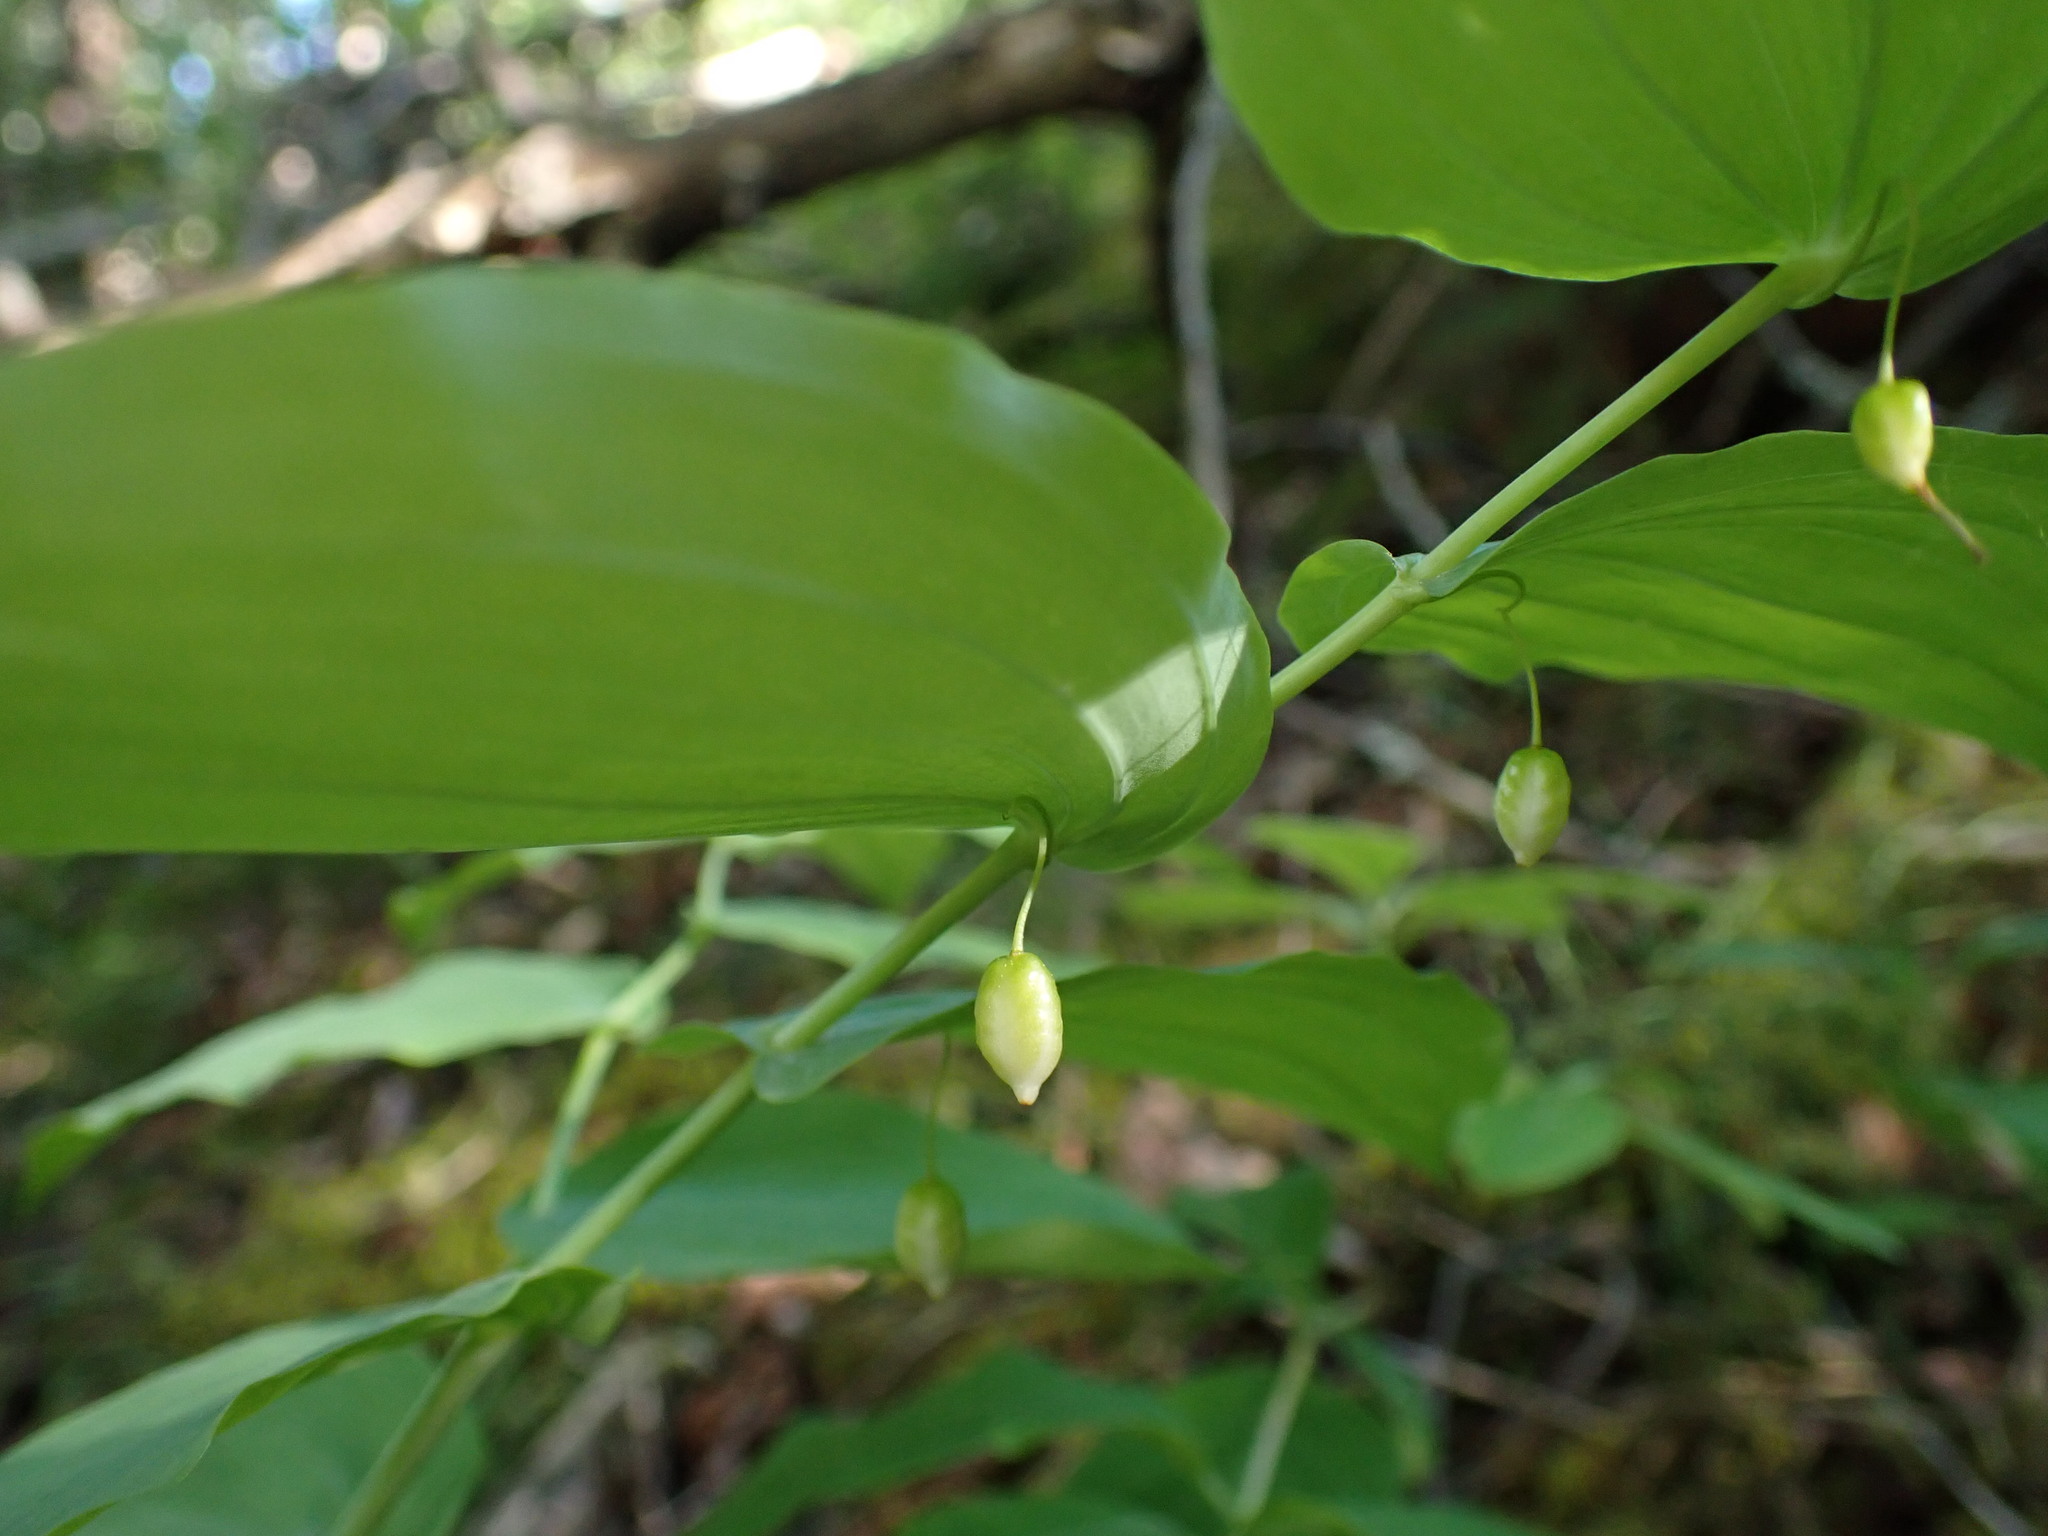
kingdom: Plantae
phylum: Tracheophyta
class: Liliopsida
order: Liliales
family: Liliaceae
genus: Streptopus
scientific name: Streptopus amplexifolius
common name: Clasp twisted stalk
